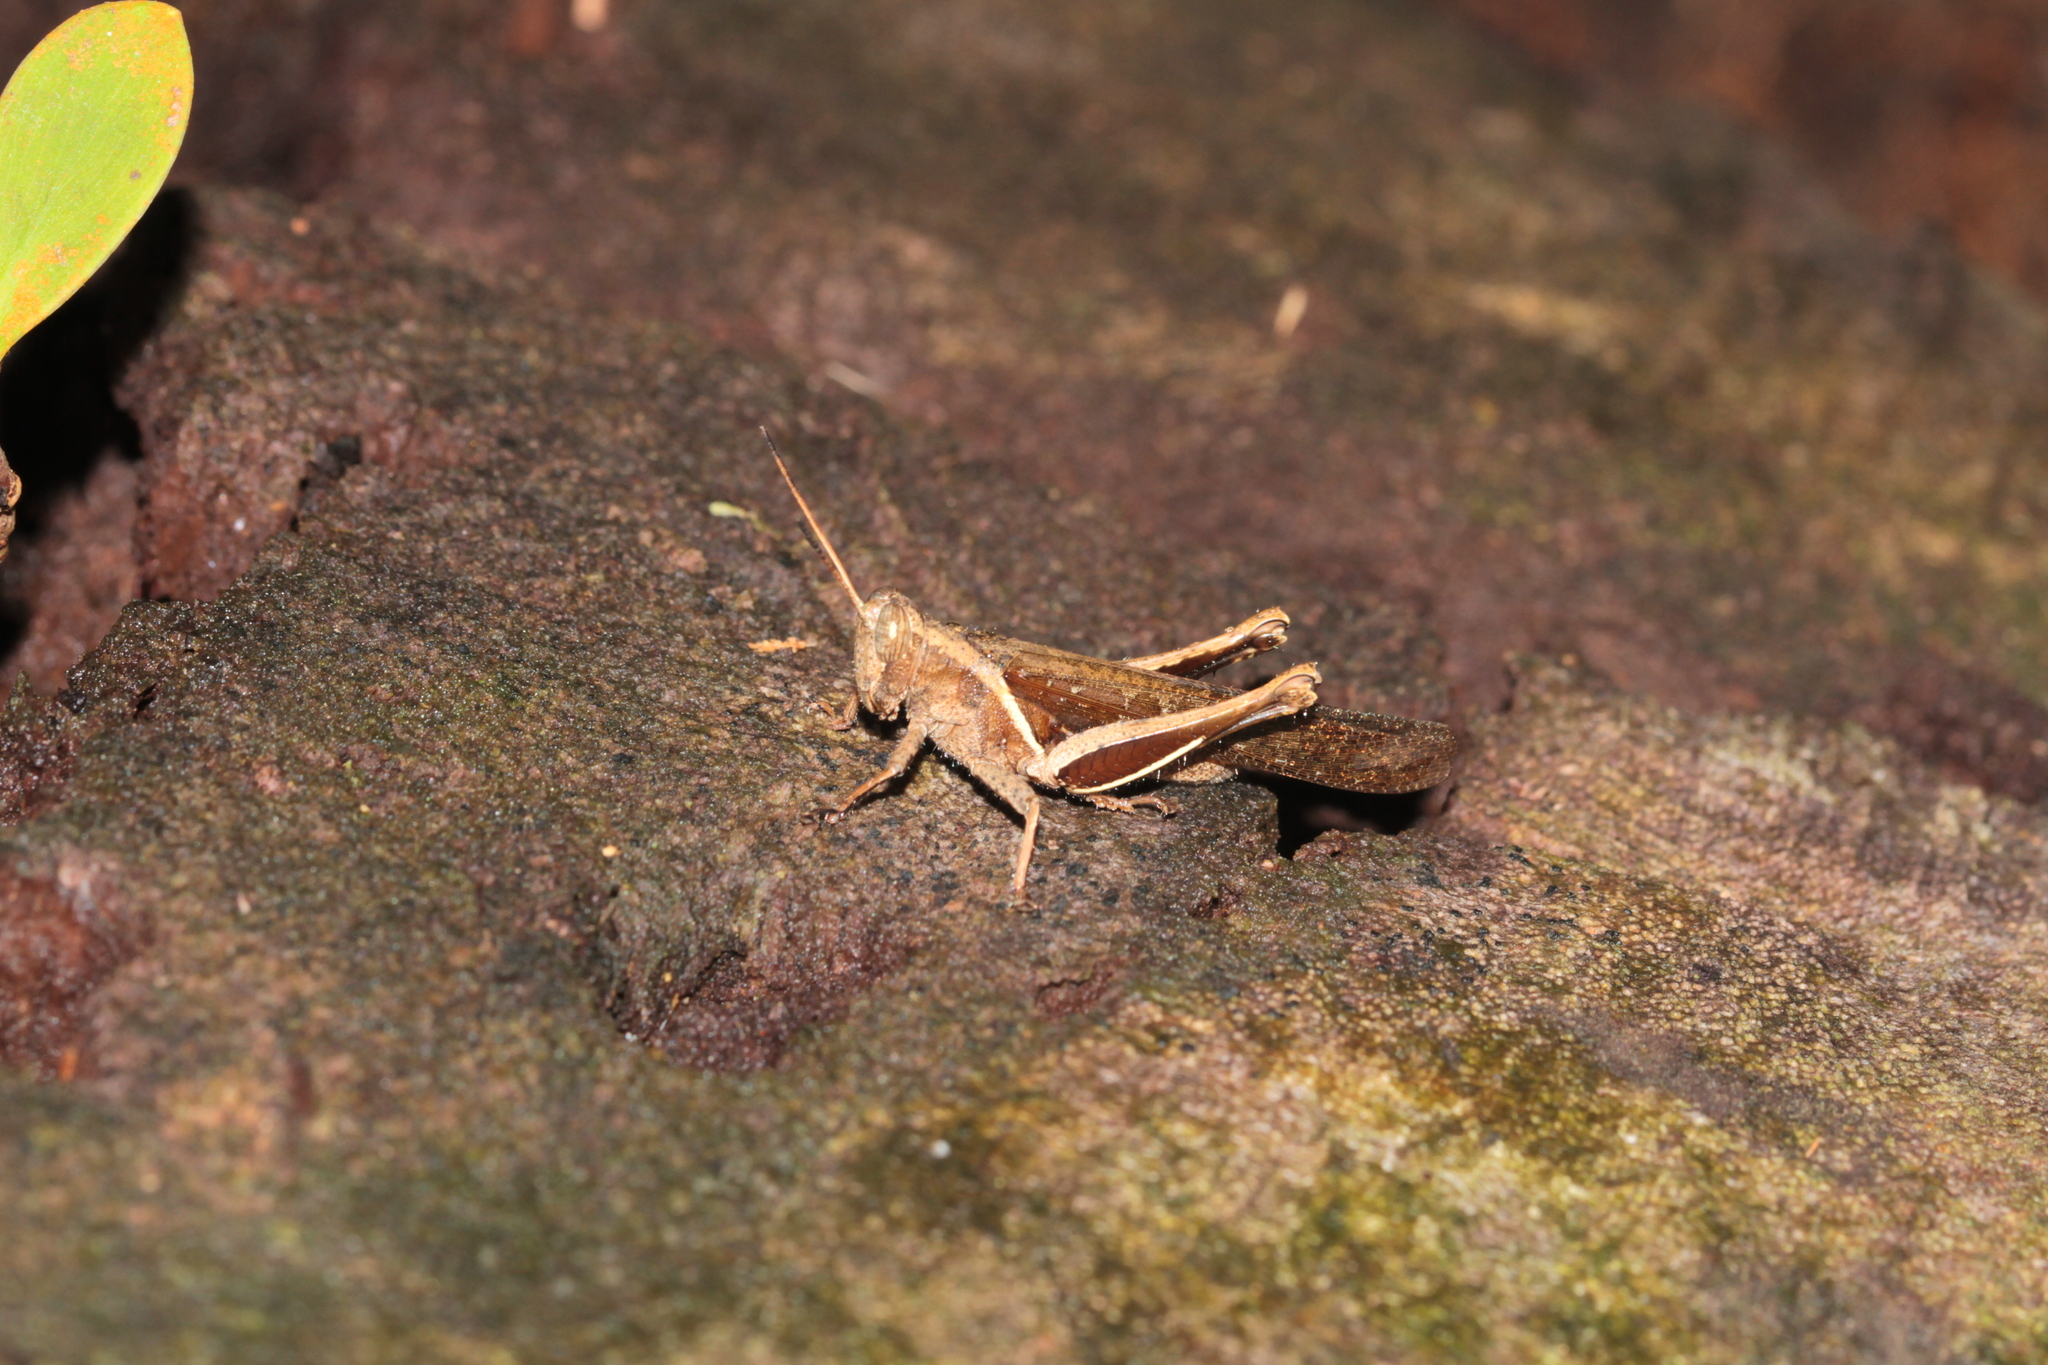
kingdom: Animalia
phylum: Arthropoda
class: Insecta
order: Orthoptera
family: Acrididae
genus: Abracris
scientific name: Abracris flavolineata
